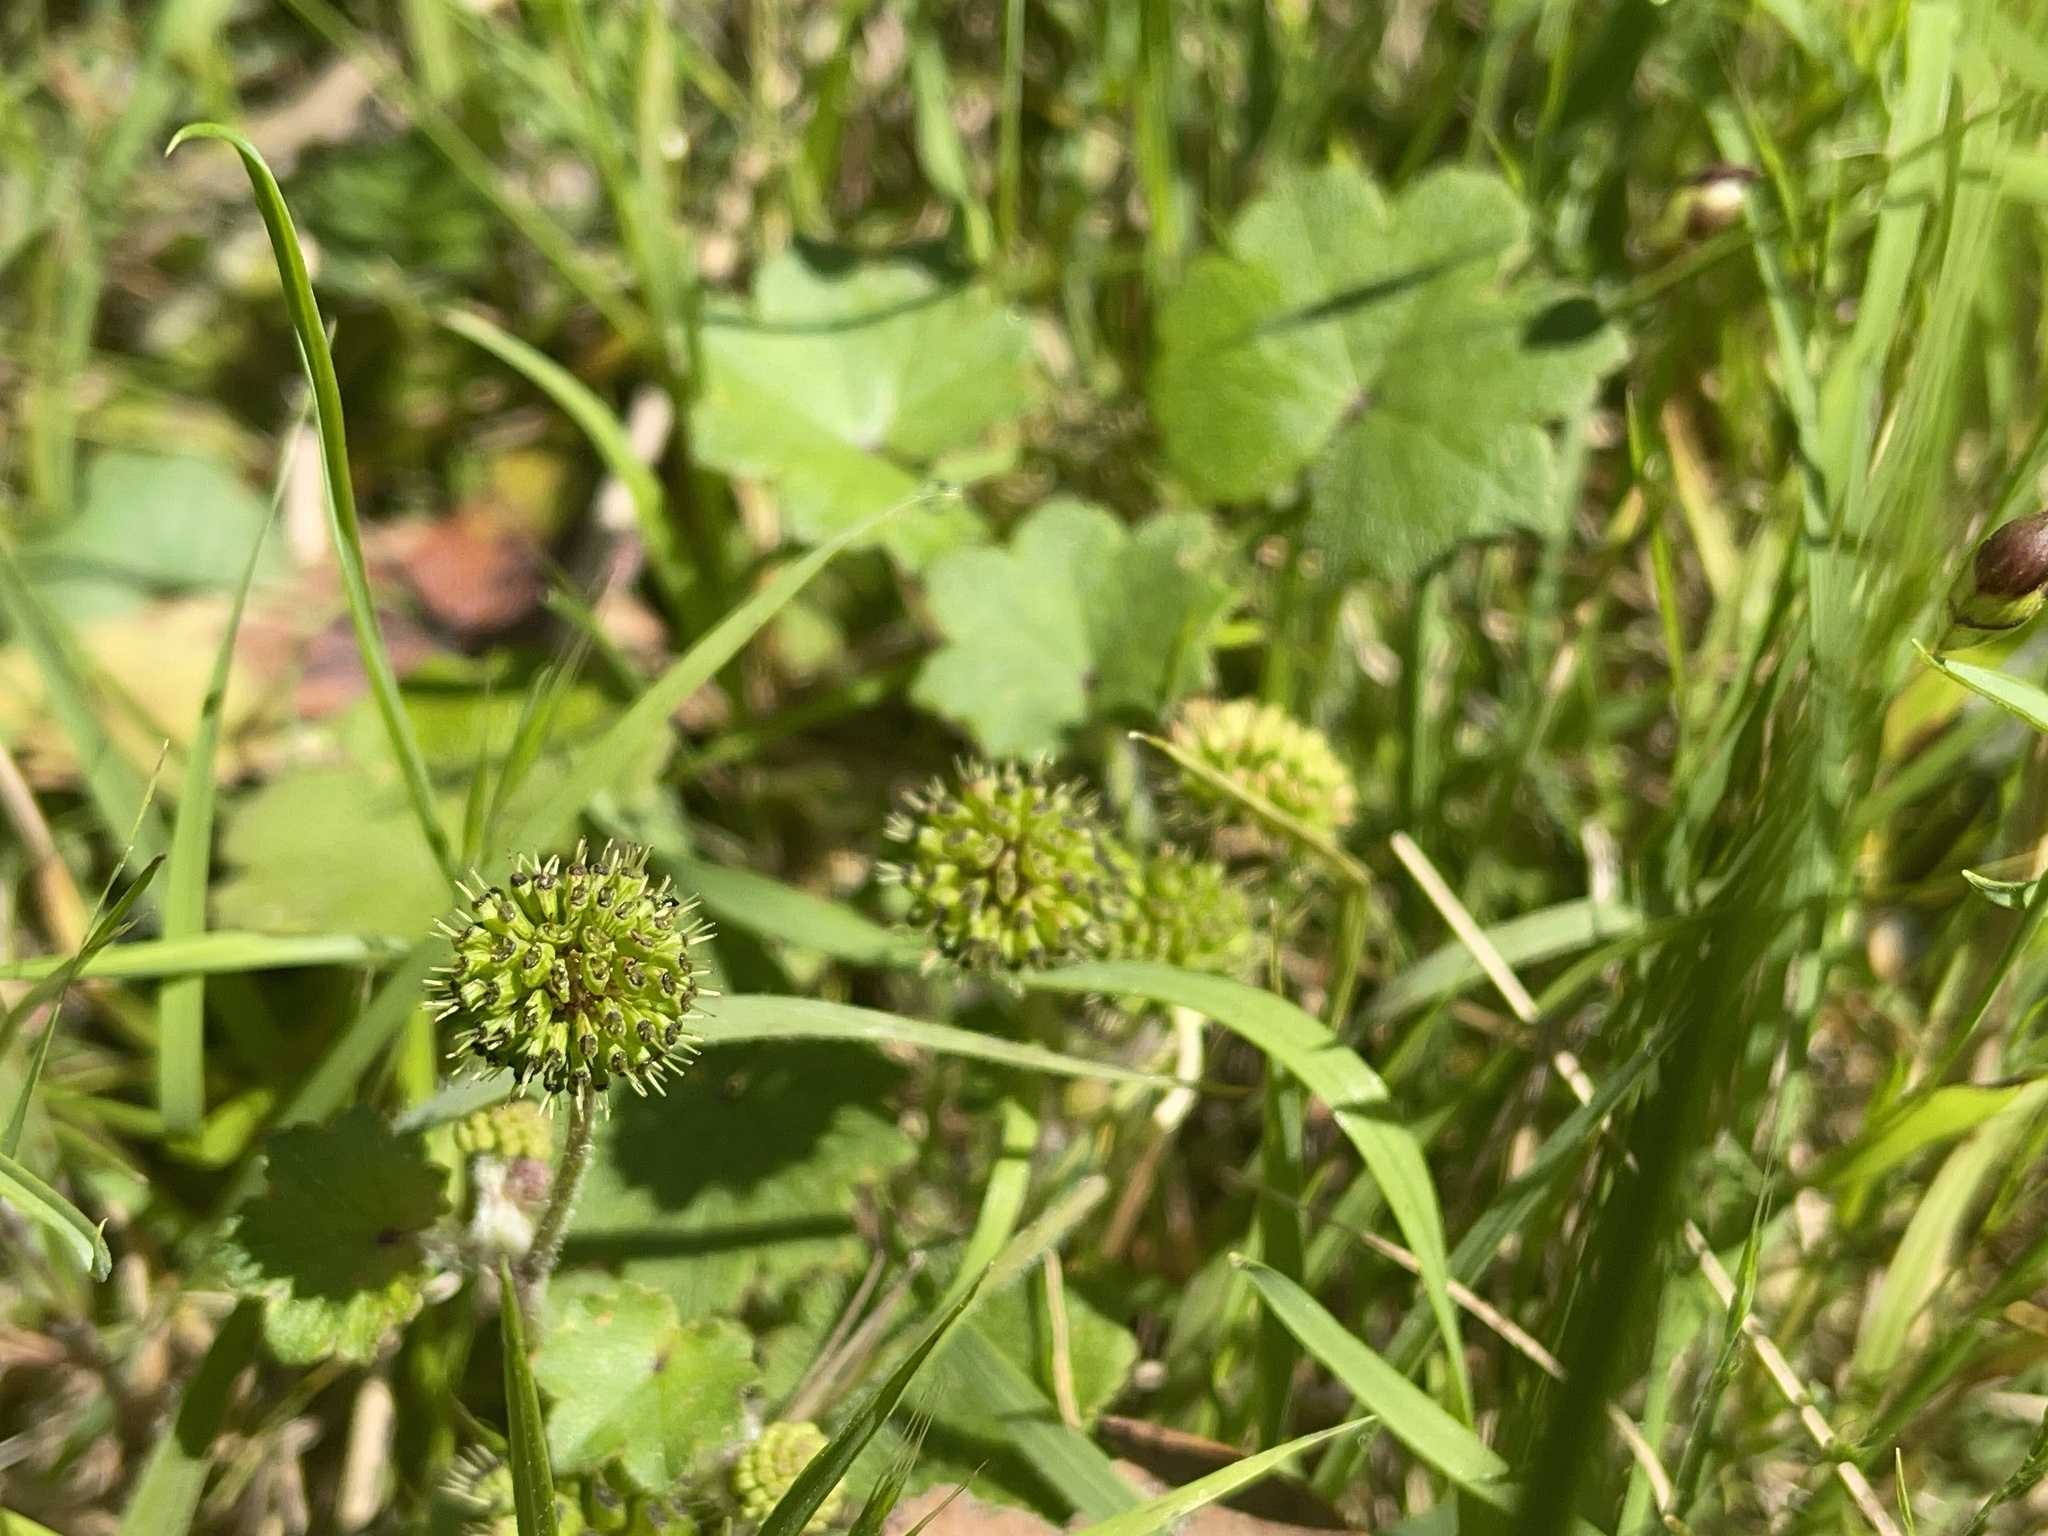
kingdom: Plantae
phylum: Tracheophyta
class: Magnoliopsida
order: Apiales
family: Araliaceae
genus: Hydrocotyle
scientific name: Hydrocotyle laxiflora
